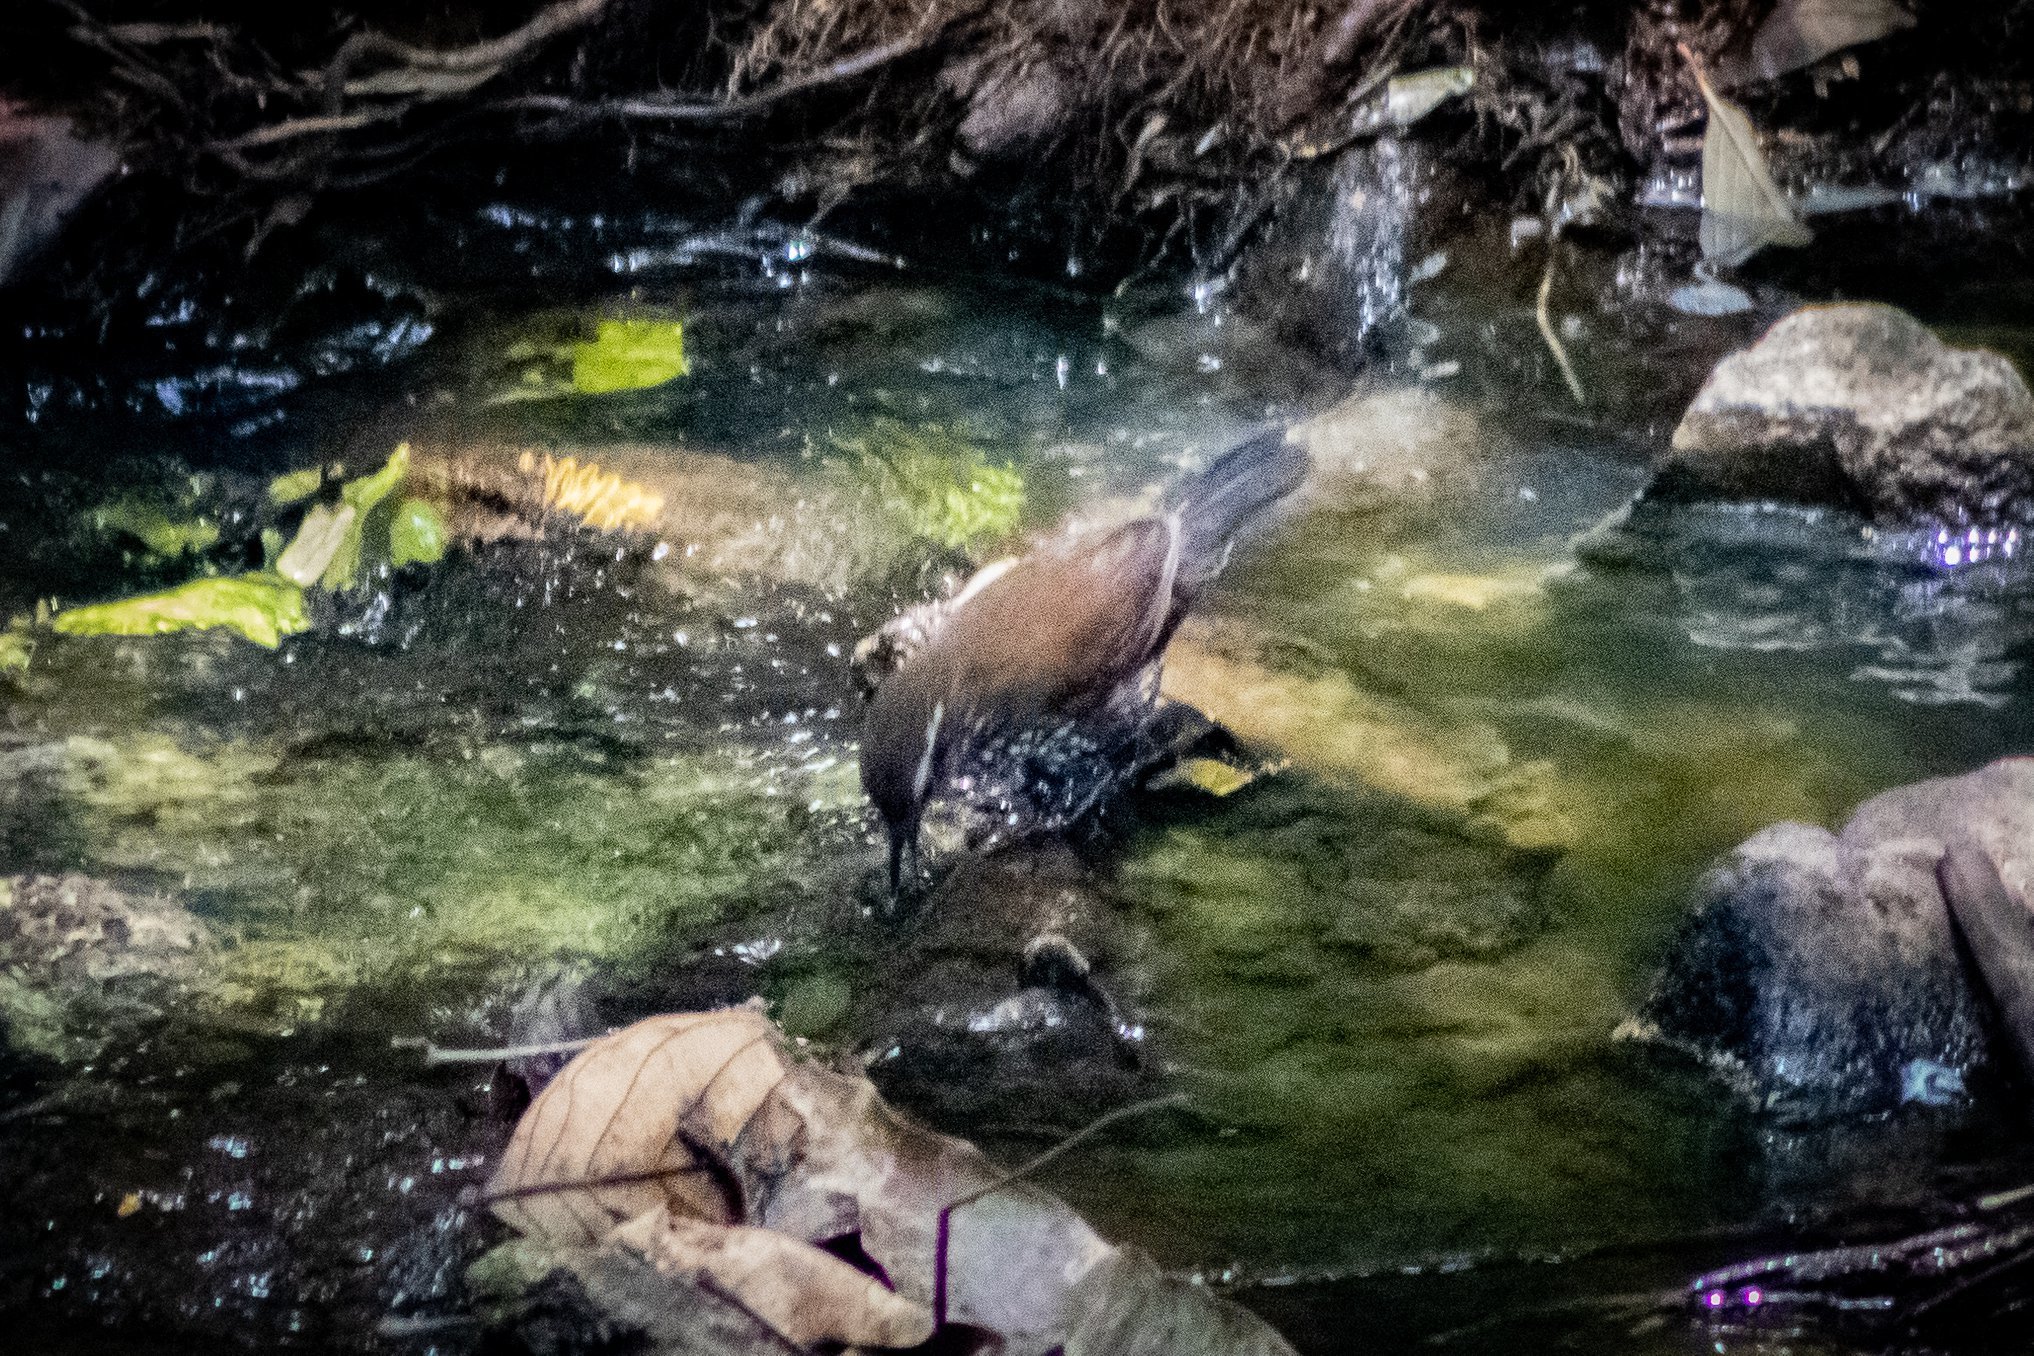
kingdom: Animalia
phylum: Chordata
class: Aves
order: Passeriformes
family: Furnariidae
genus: Lochmias
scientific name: Lochmias nematura
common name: Sharp-tailed streamcreeper
